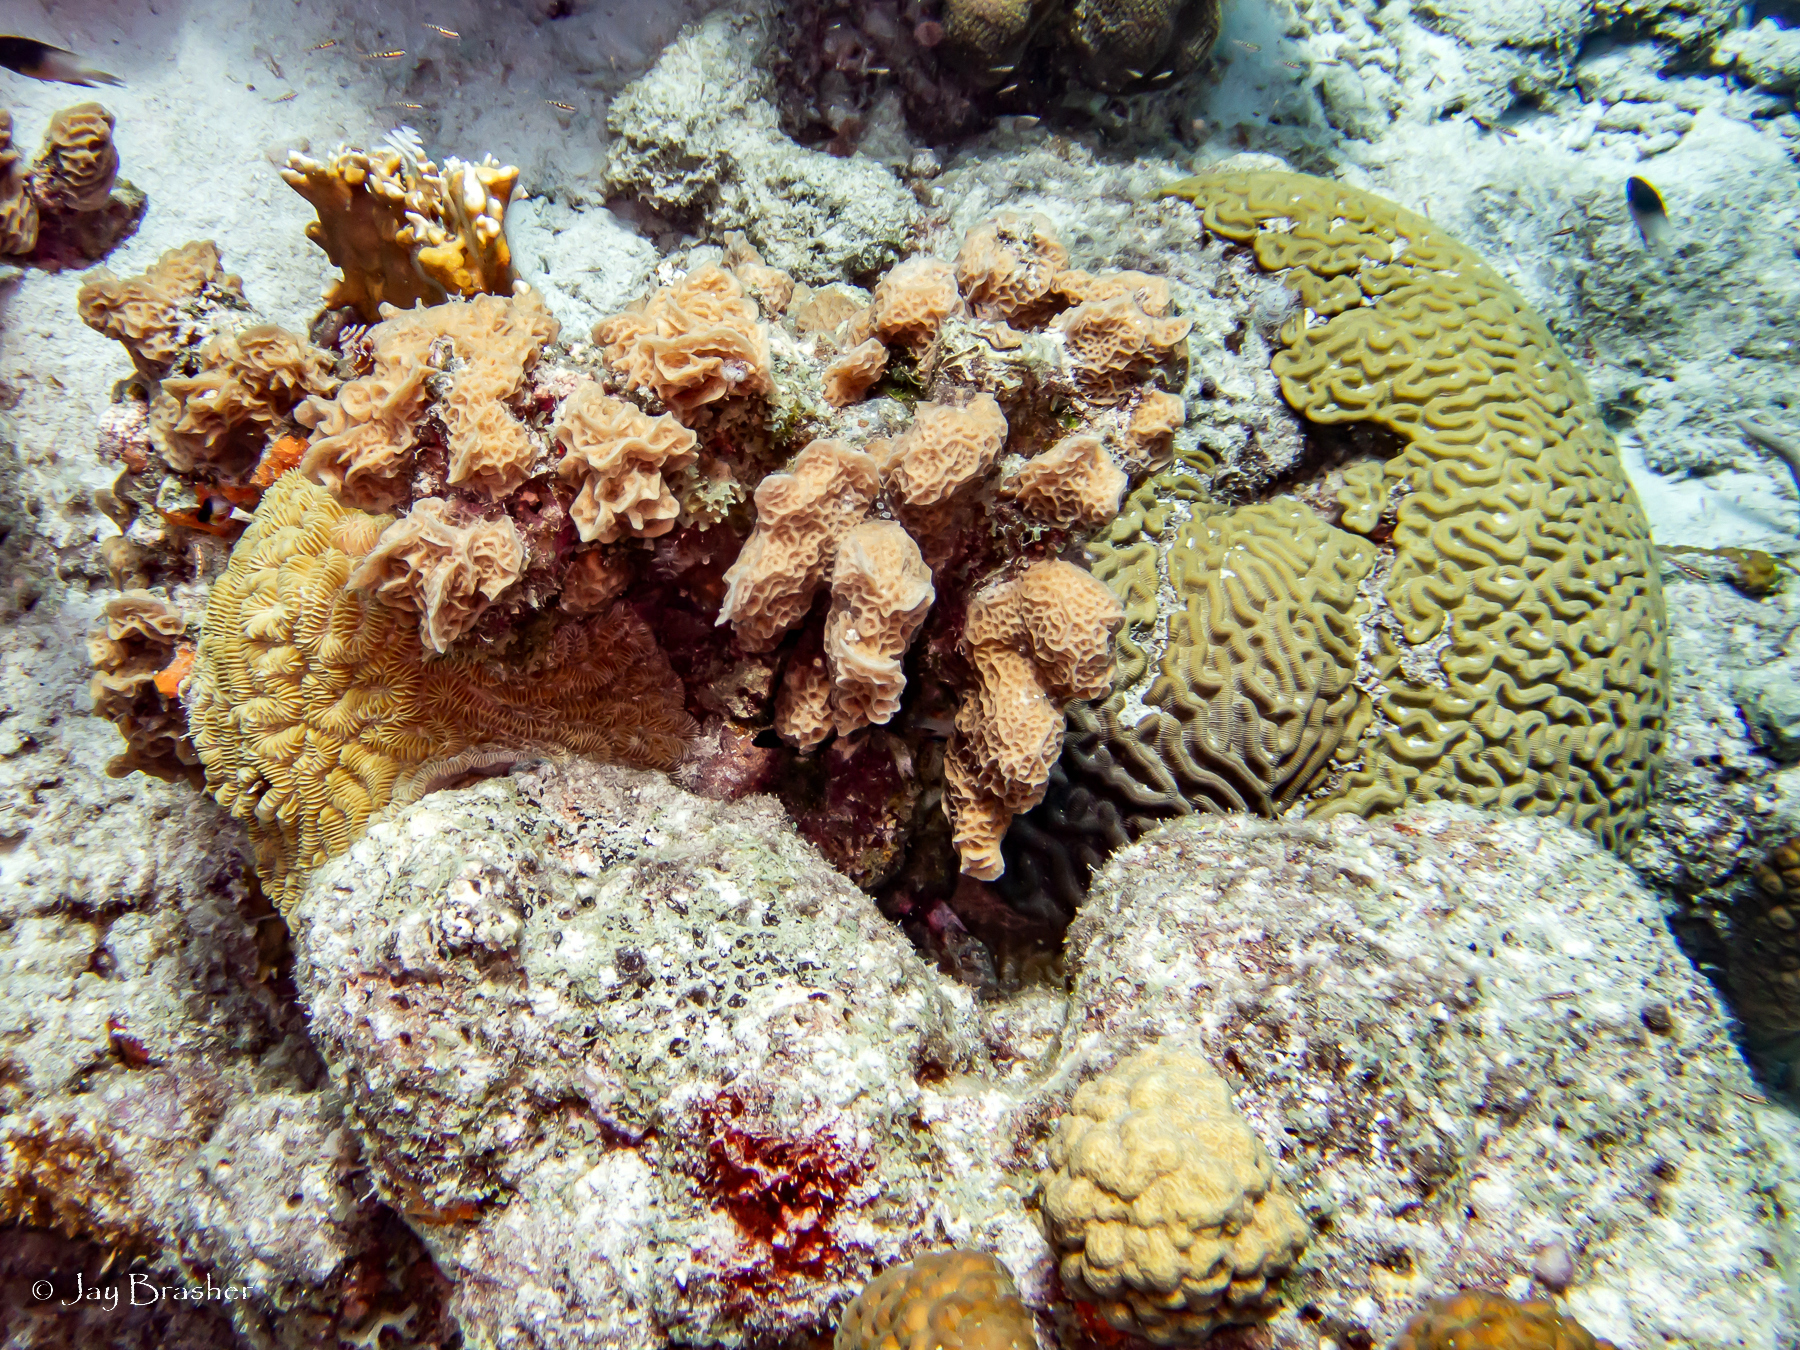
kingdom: Animalia
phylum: Cnidaria
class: Anthozoa
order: Scleractinia
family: Poritidae
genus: Porites
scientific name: Porites astreoides
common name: Mustard hill coral
